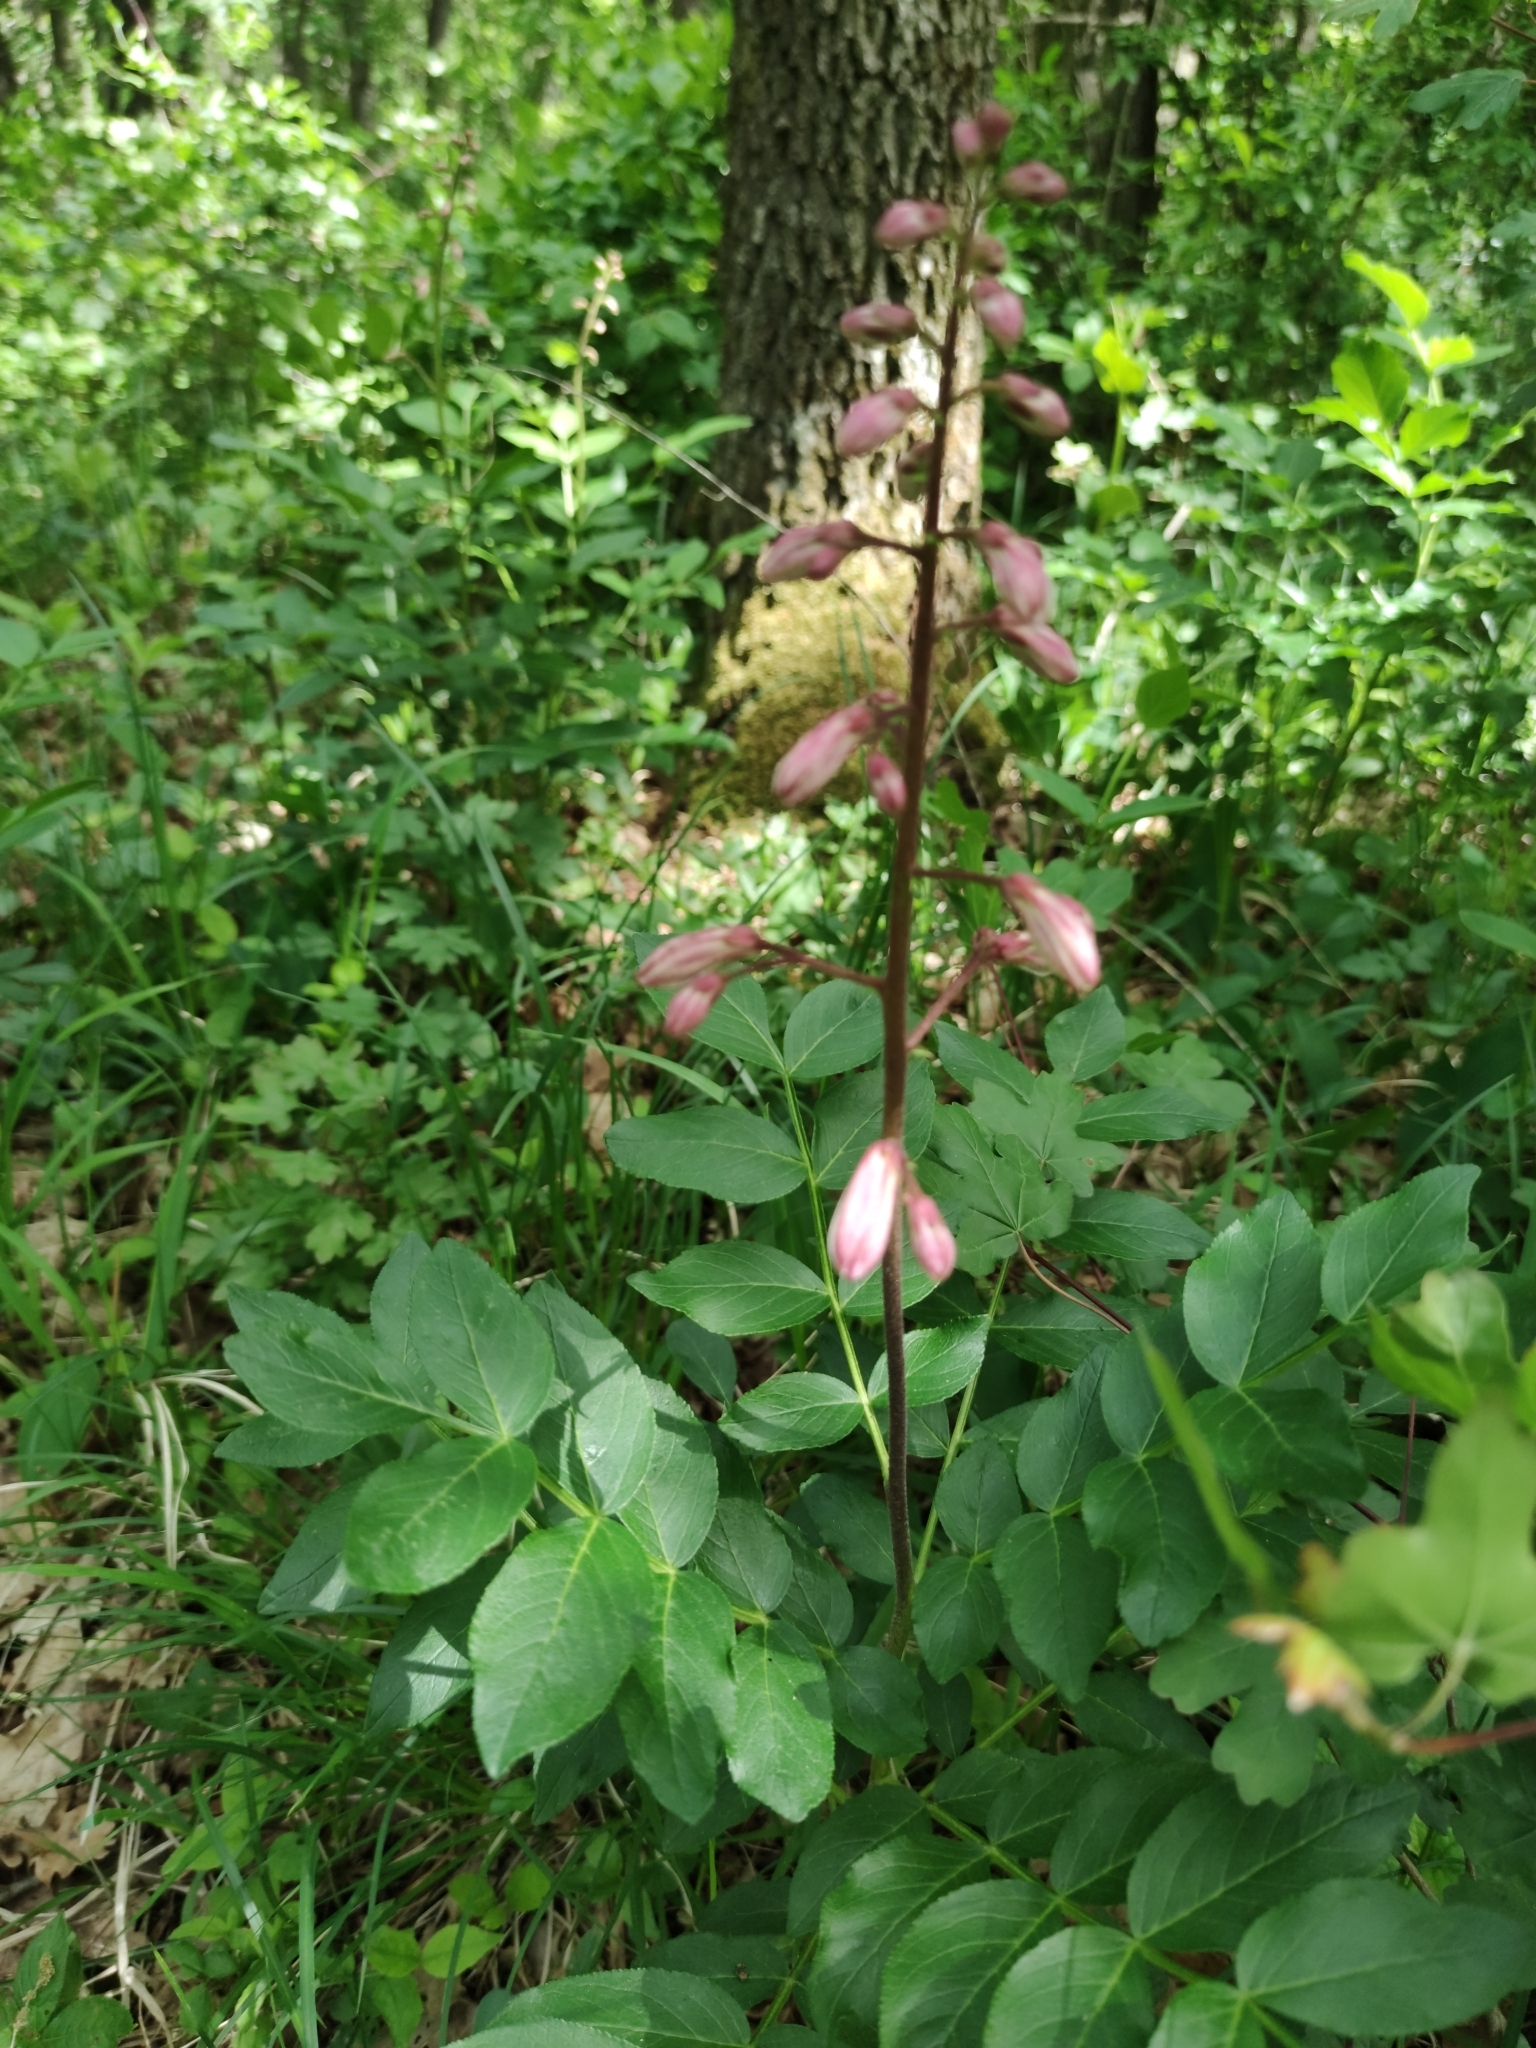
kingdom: Plantae
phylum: Tracheophyta
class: Magnoliopsida
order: Sapindales
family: Rutaceae
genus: Dictamnus
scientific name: Dictamnus albus
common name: Gasplant
